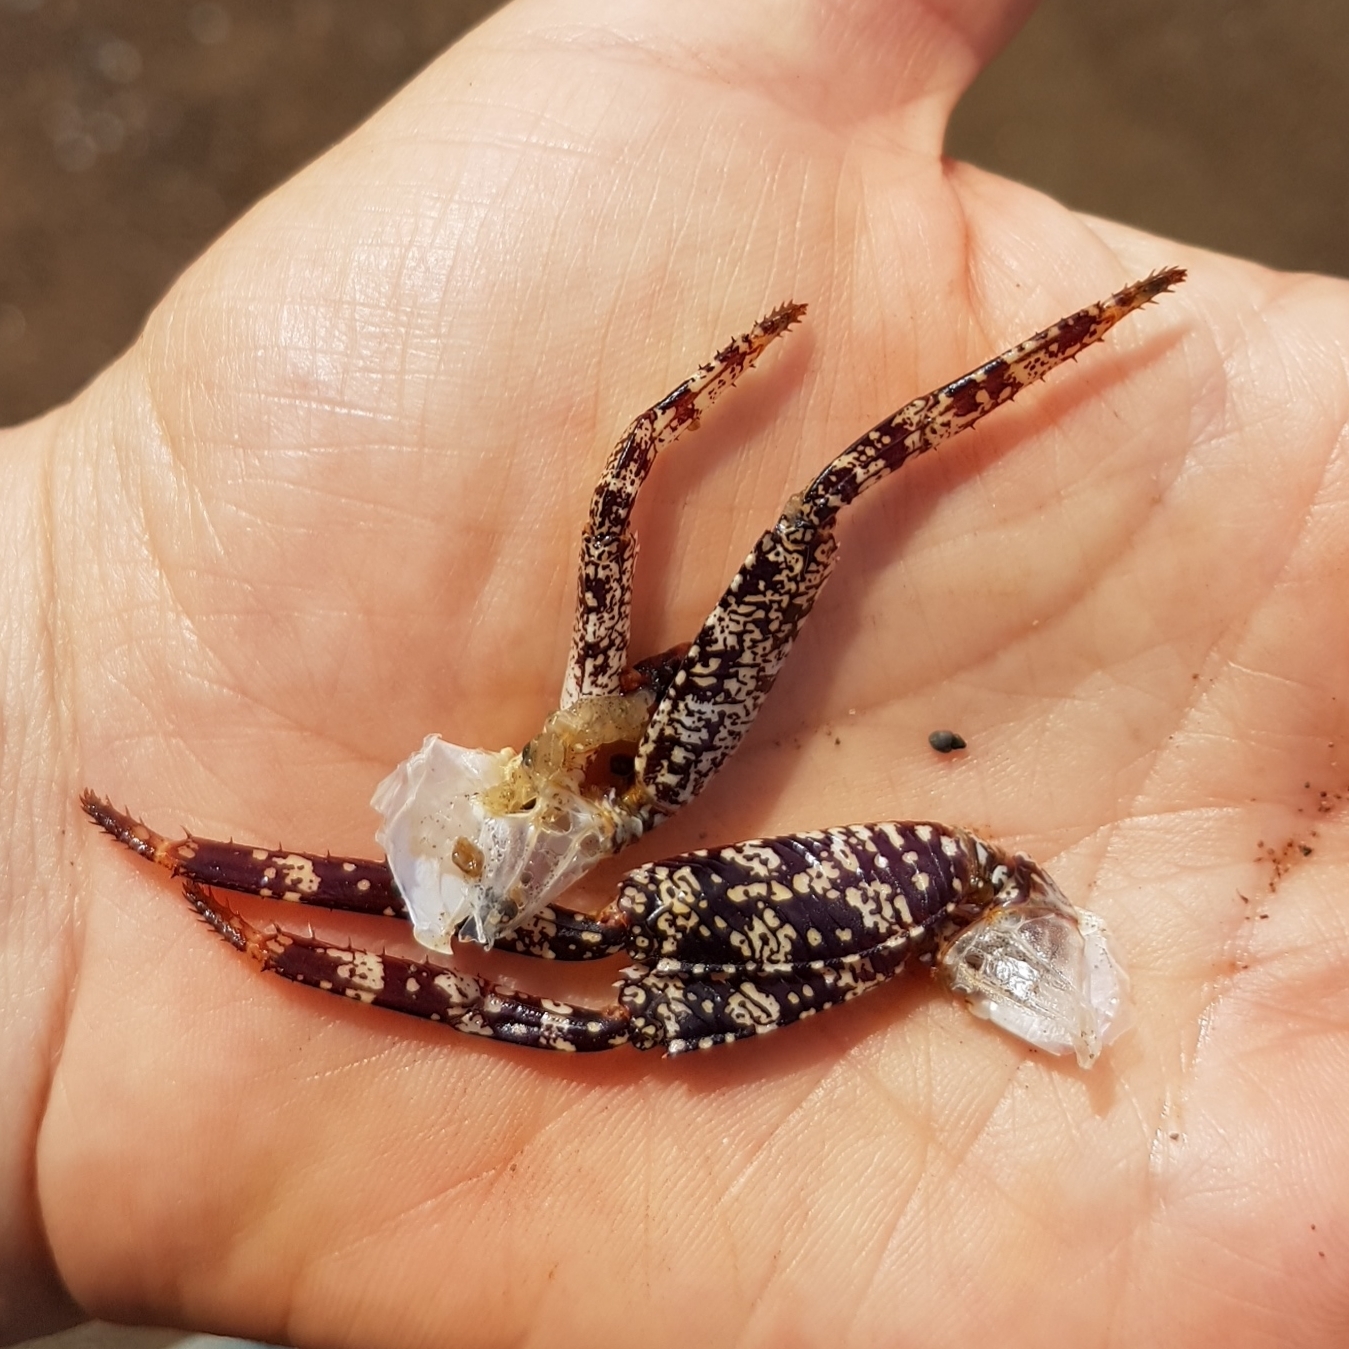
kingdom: Animalia
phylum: Arthropoda
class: Malacostraca
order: Decapoda
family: Grapsidae
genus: Grapsus
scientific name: Grapsus grapsus
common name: Sally lightfoot
